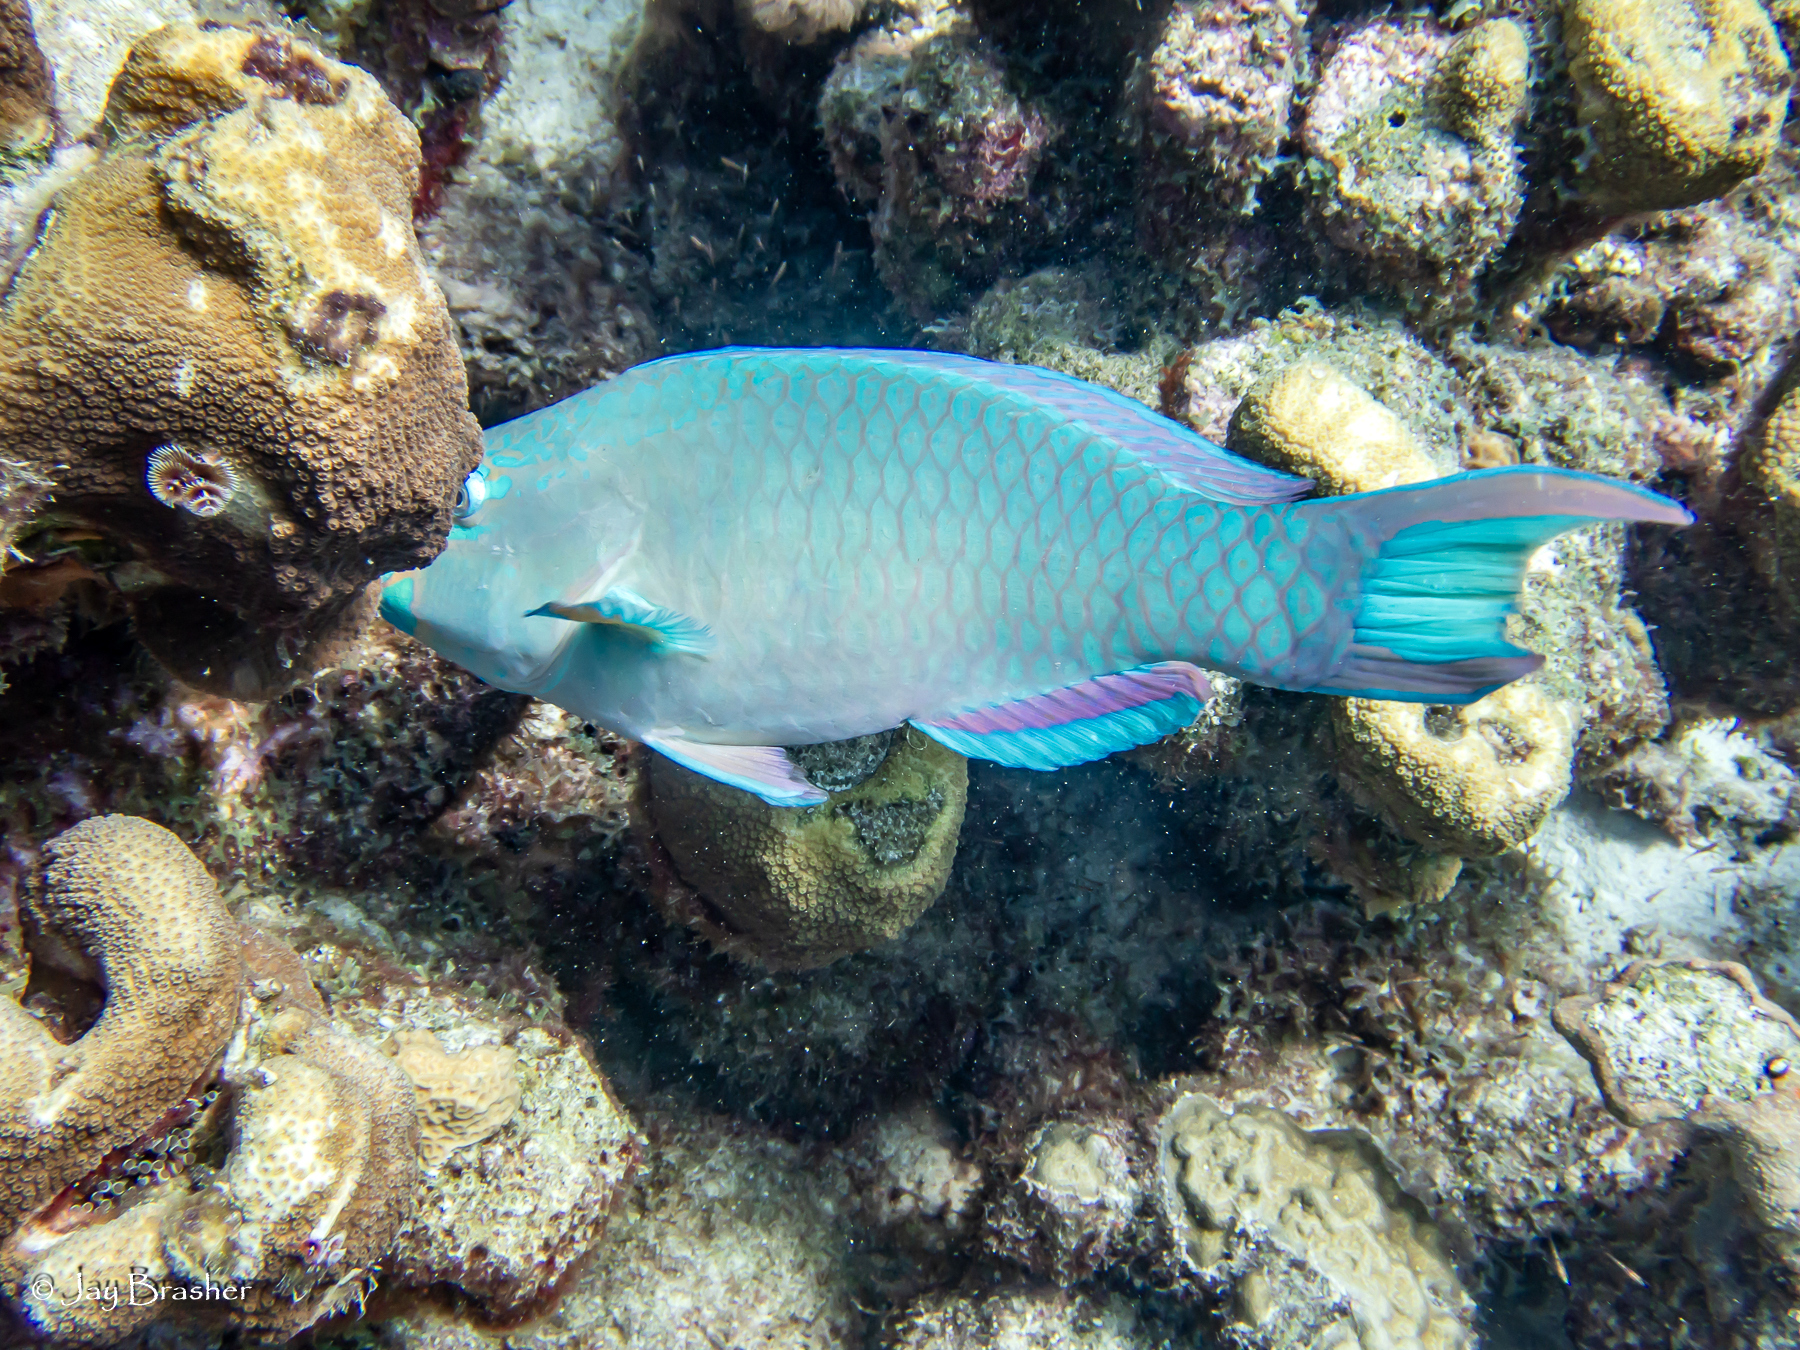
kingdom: Animalia
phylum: Chordata
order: Perciformes
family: Scaridae
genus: Scarus
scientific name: Scarus vetula
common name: Queen parrotfish
